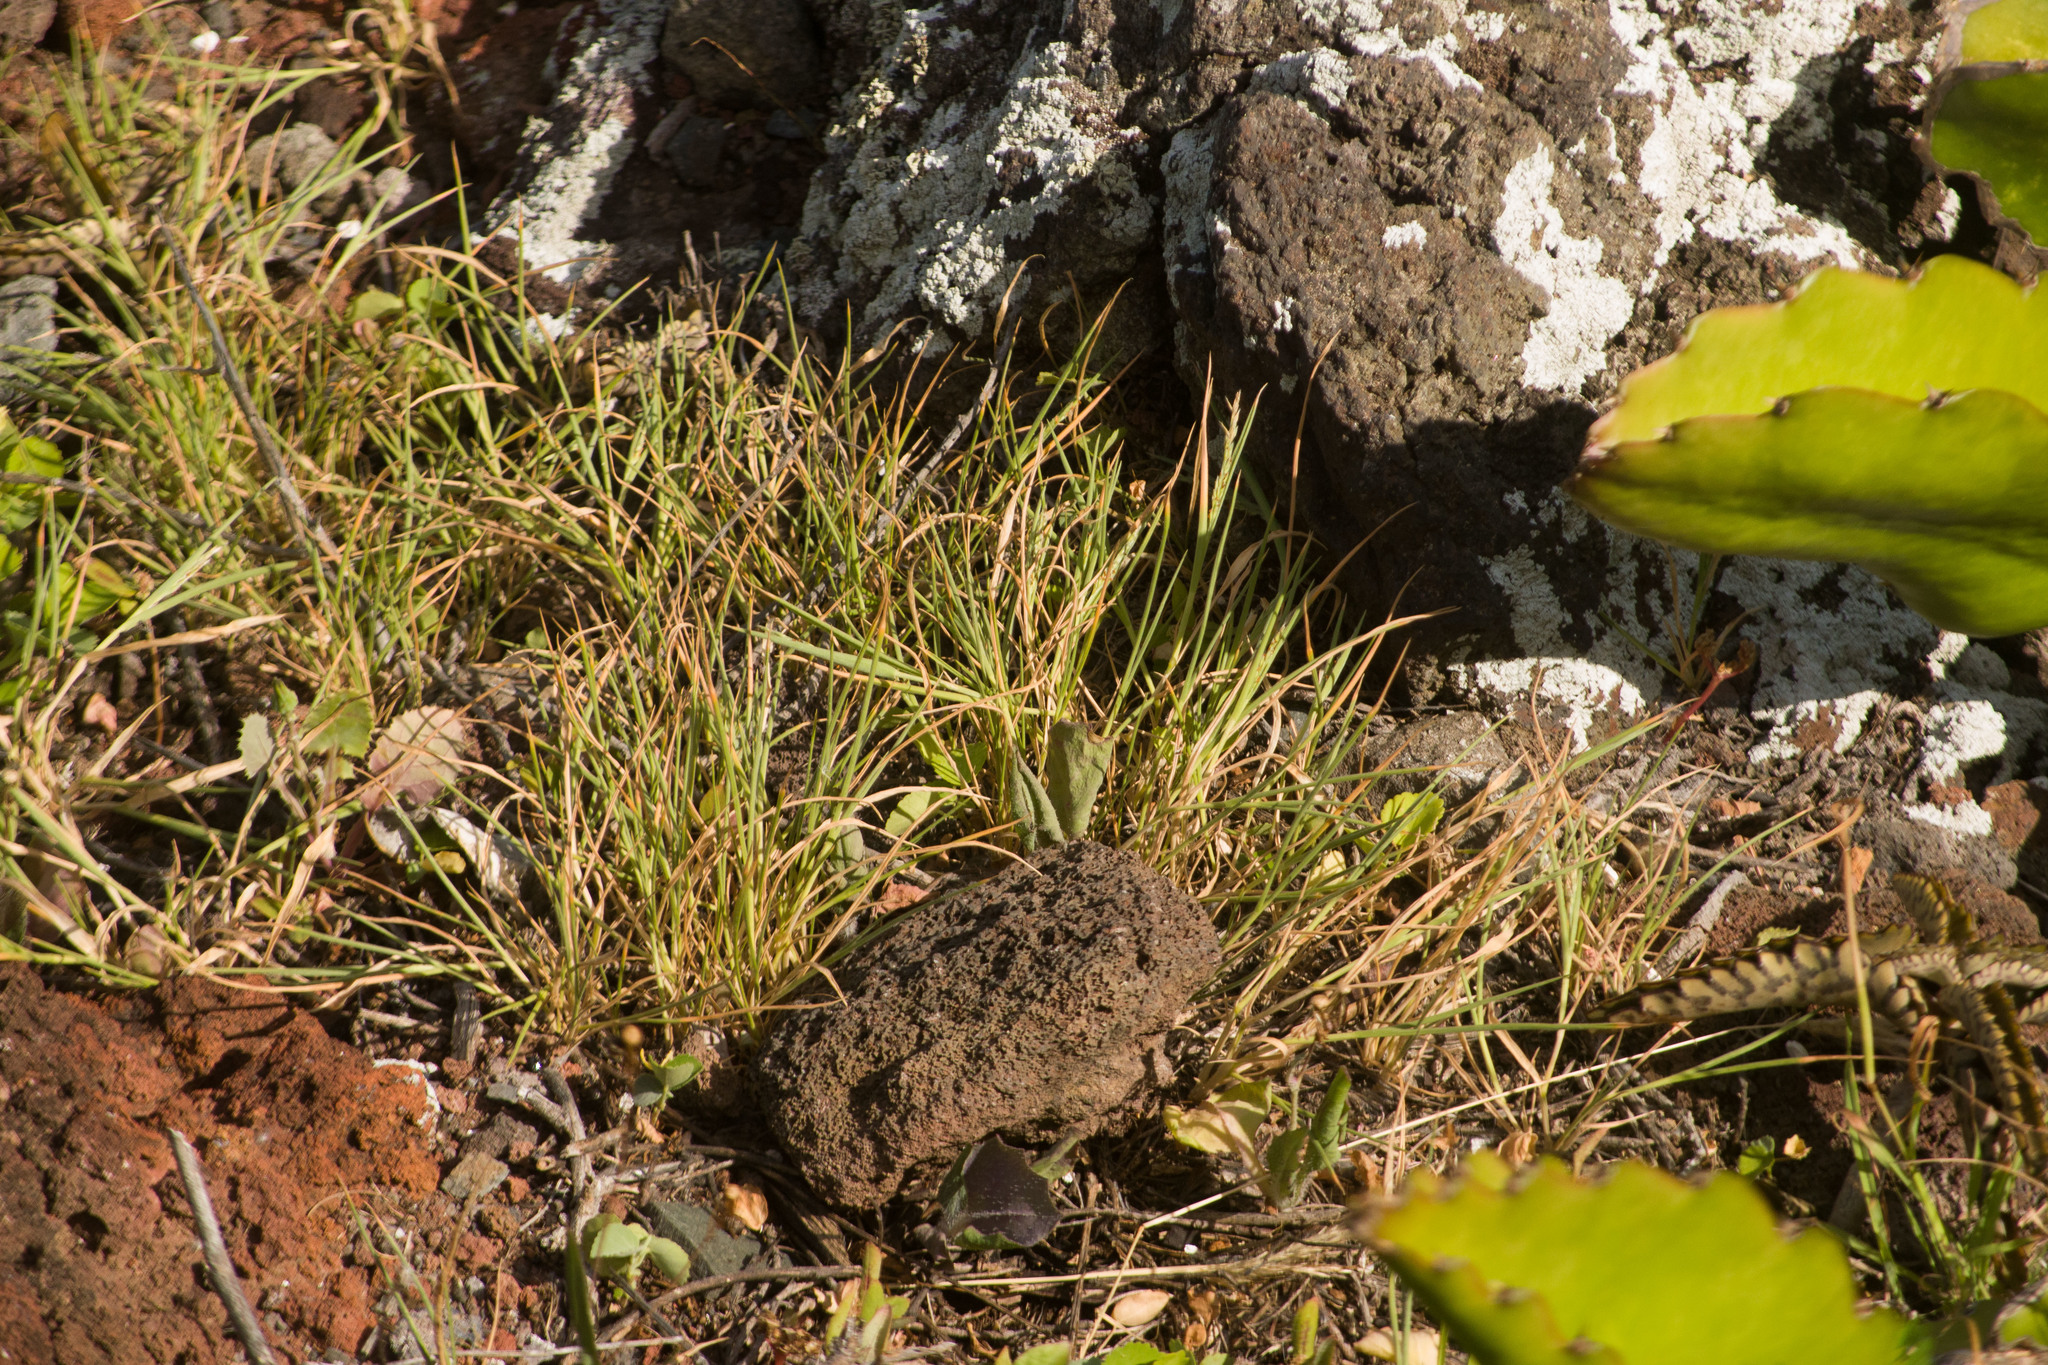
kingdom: Plantae
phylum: Tracheophyta
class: Liliopsida
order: Poales
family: Poaceae
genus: Panicum
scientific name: Panicum fauriei
